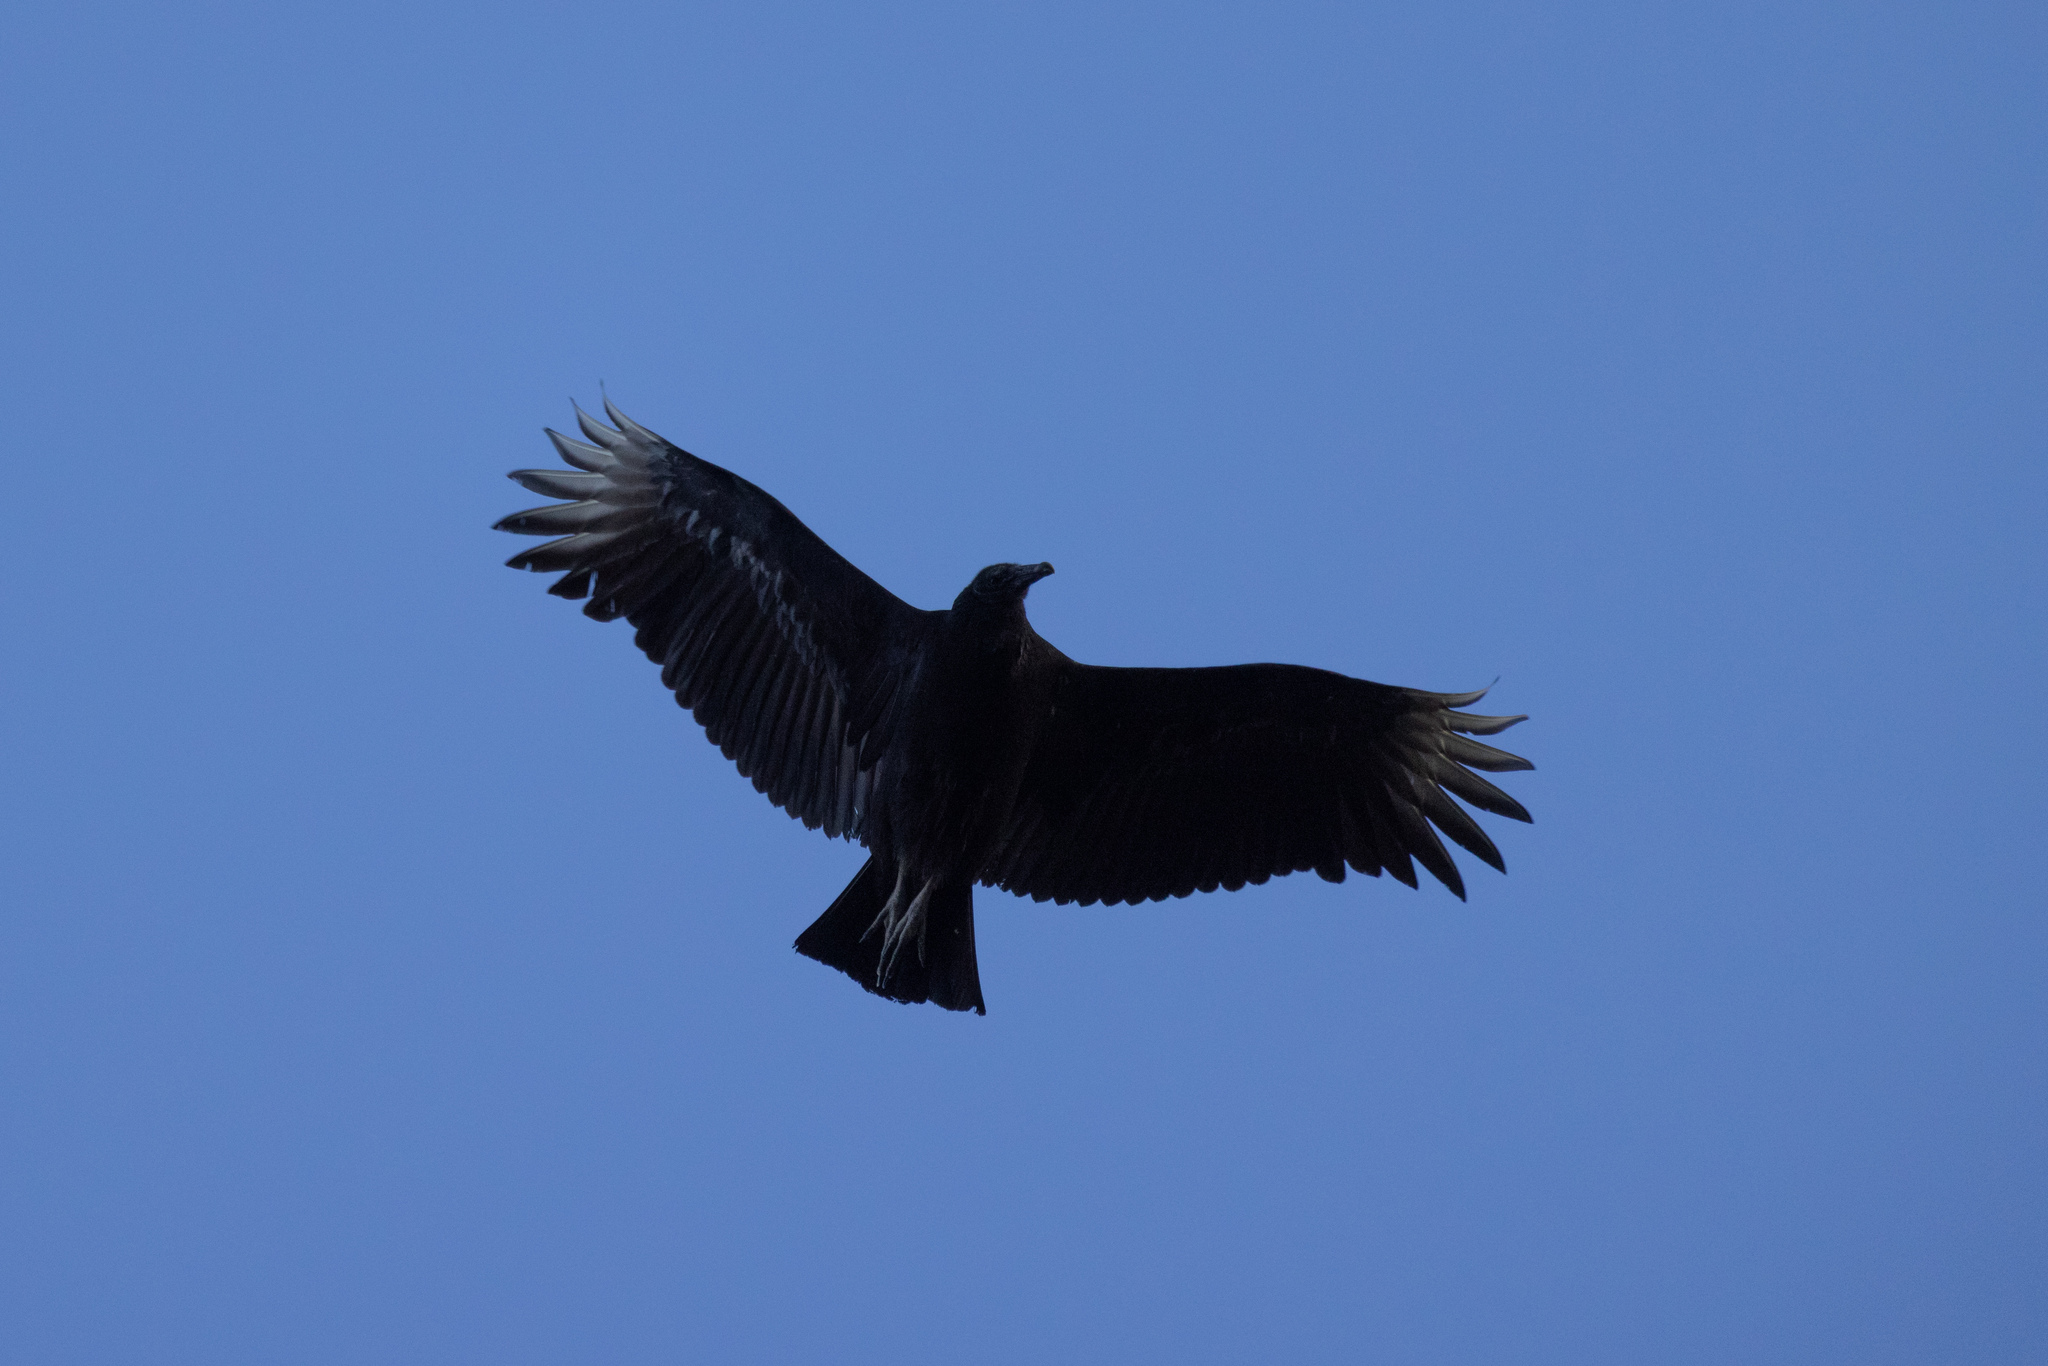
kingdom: Animalia
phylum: Chordata
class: Aves
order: Accipitriformes
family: Cathartidae
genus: Coragyps
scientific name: Coragyps atratus
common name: Black vulture
